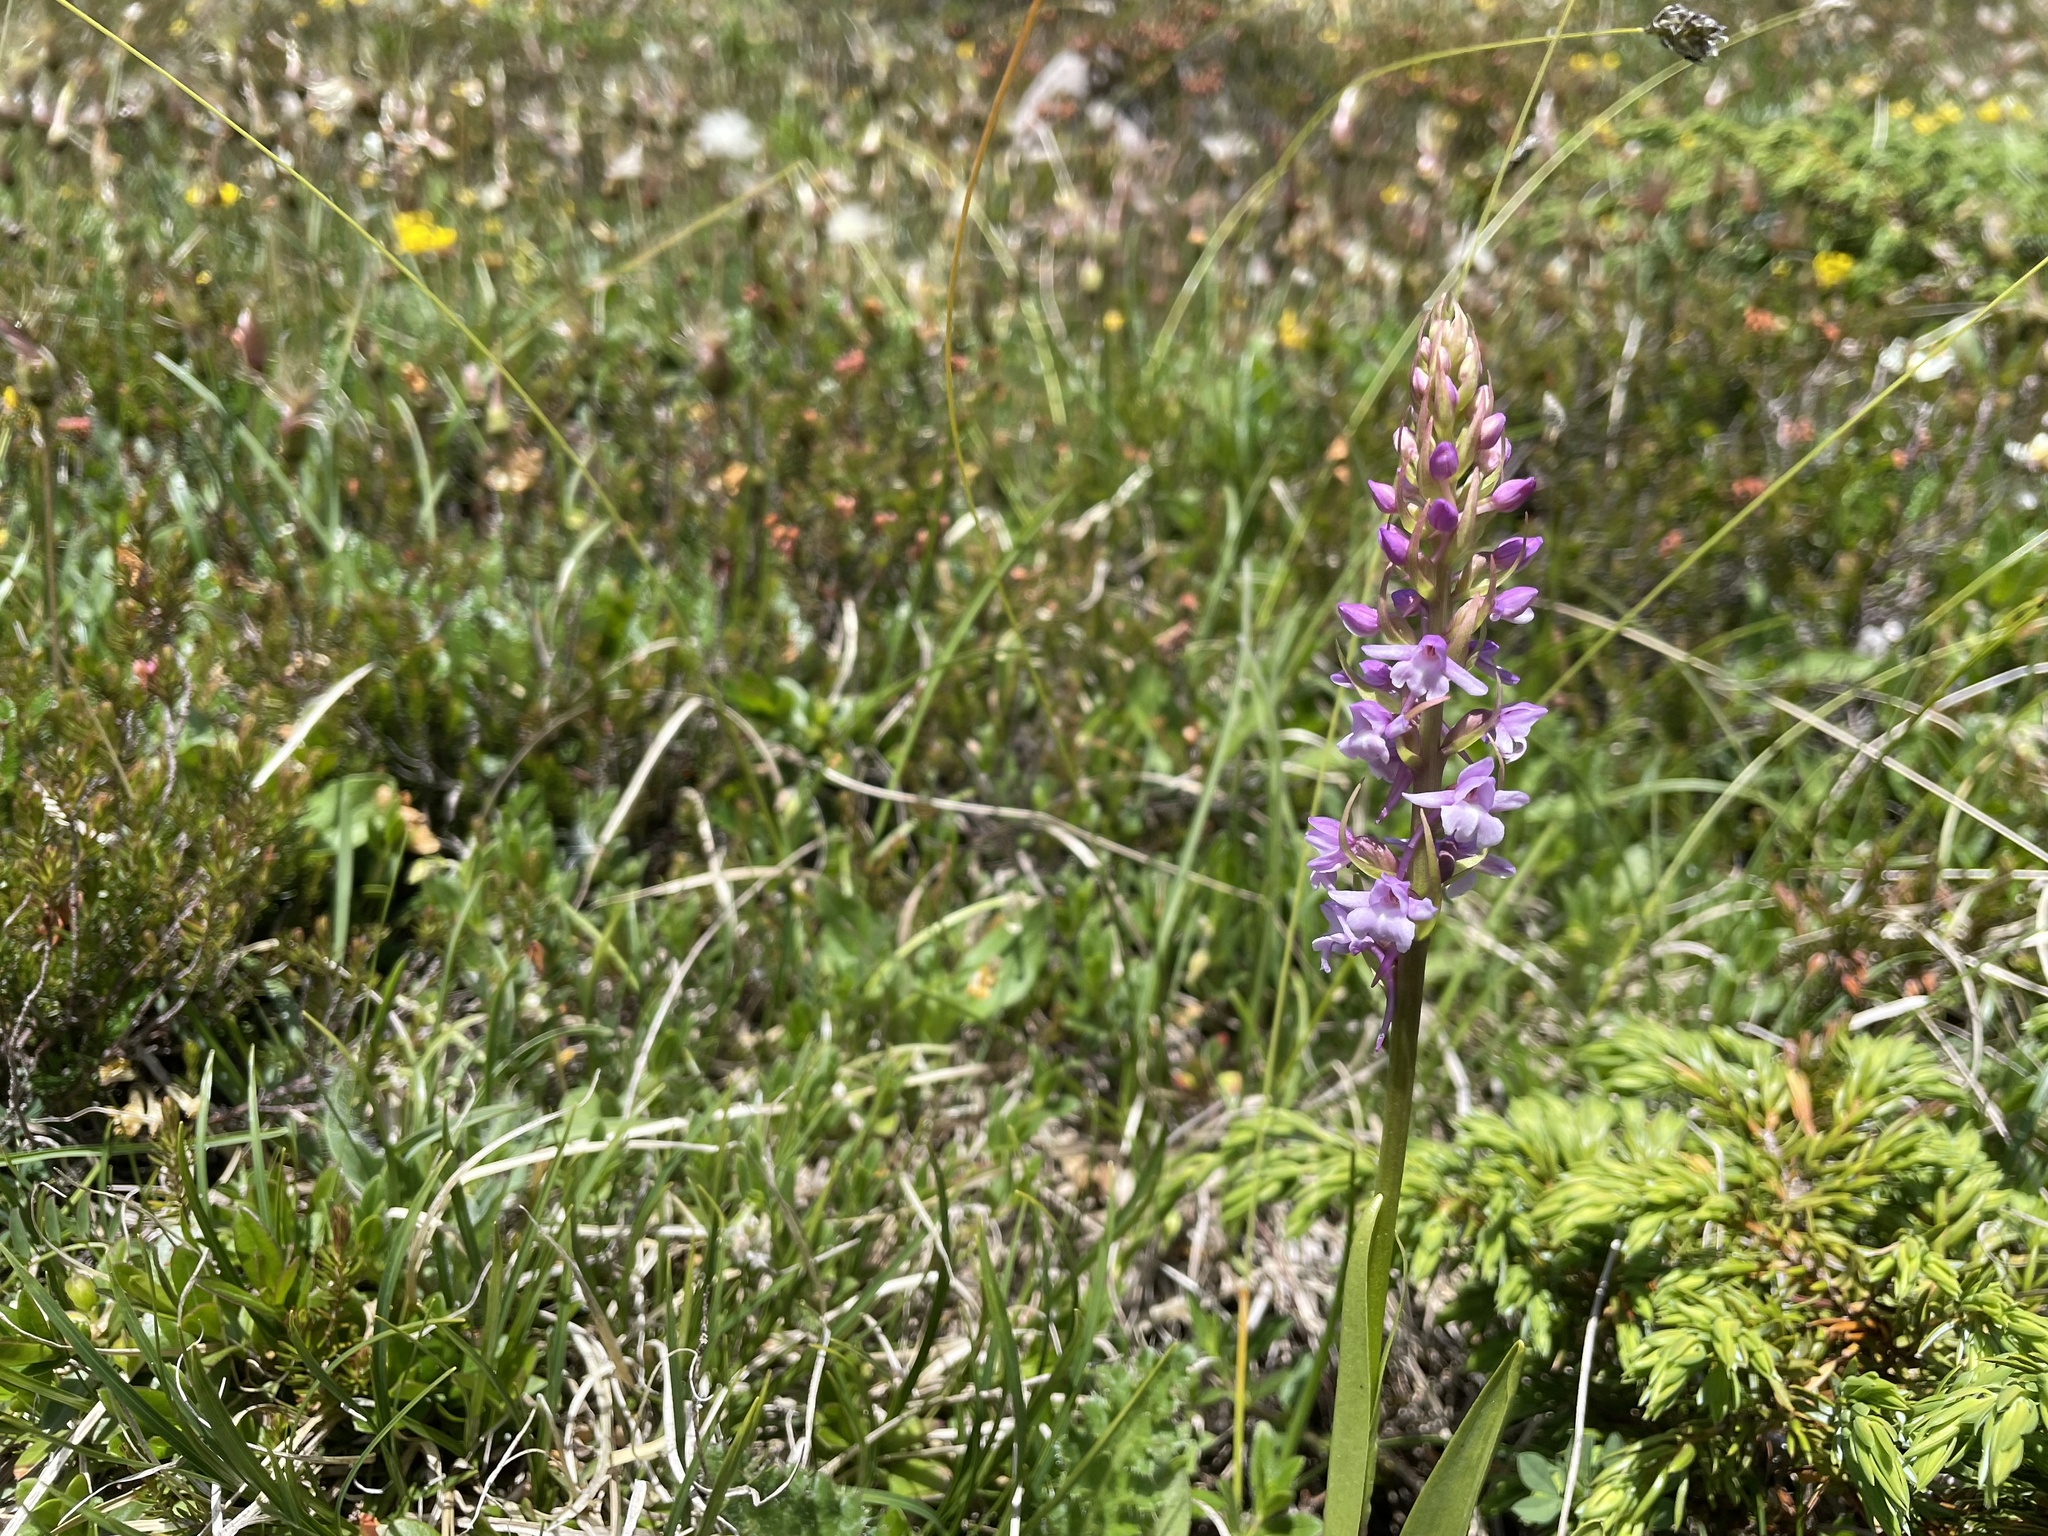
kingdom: Plantae
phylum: Tracheophyta
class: Liliopsida
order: Asparagales
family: Orchidaceae
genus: Gymnadenia
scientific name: Gymnadenia conopsea
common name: Fragrant orchid
